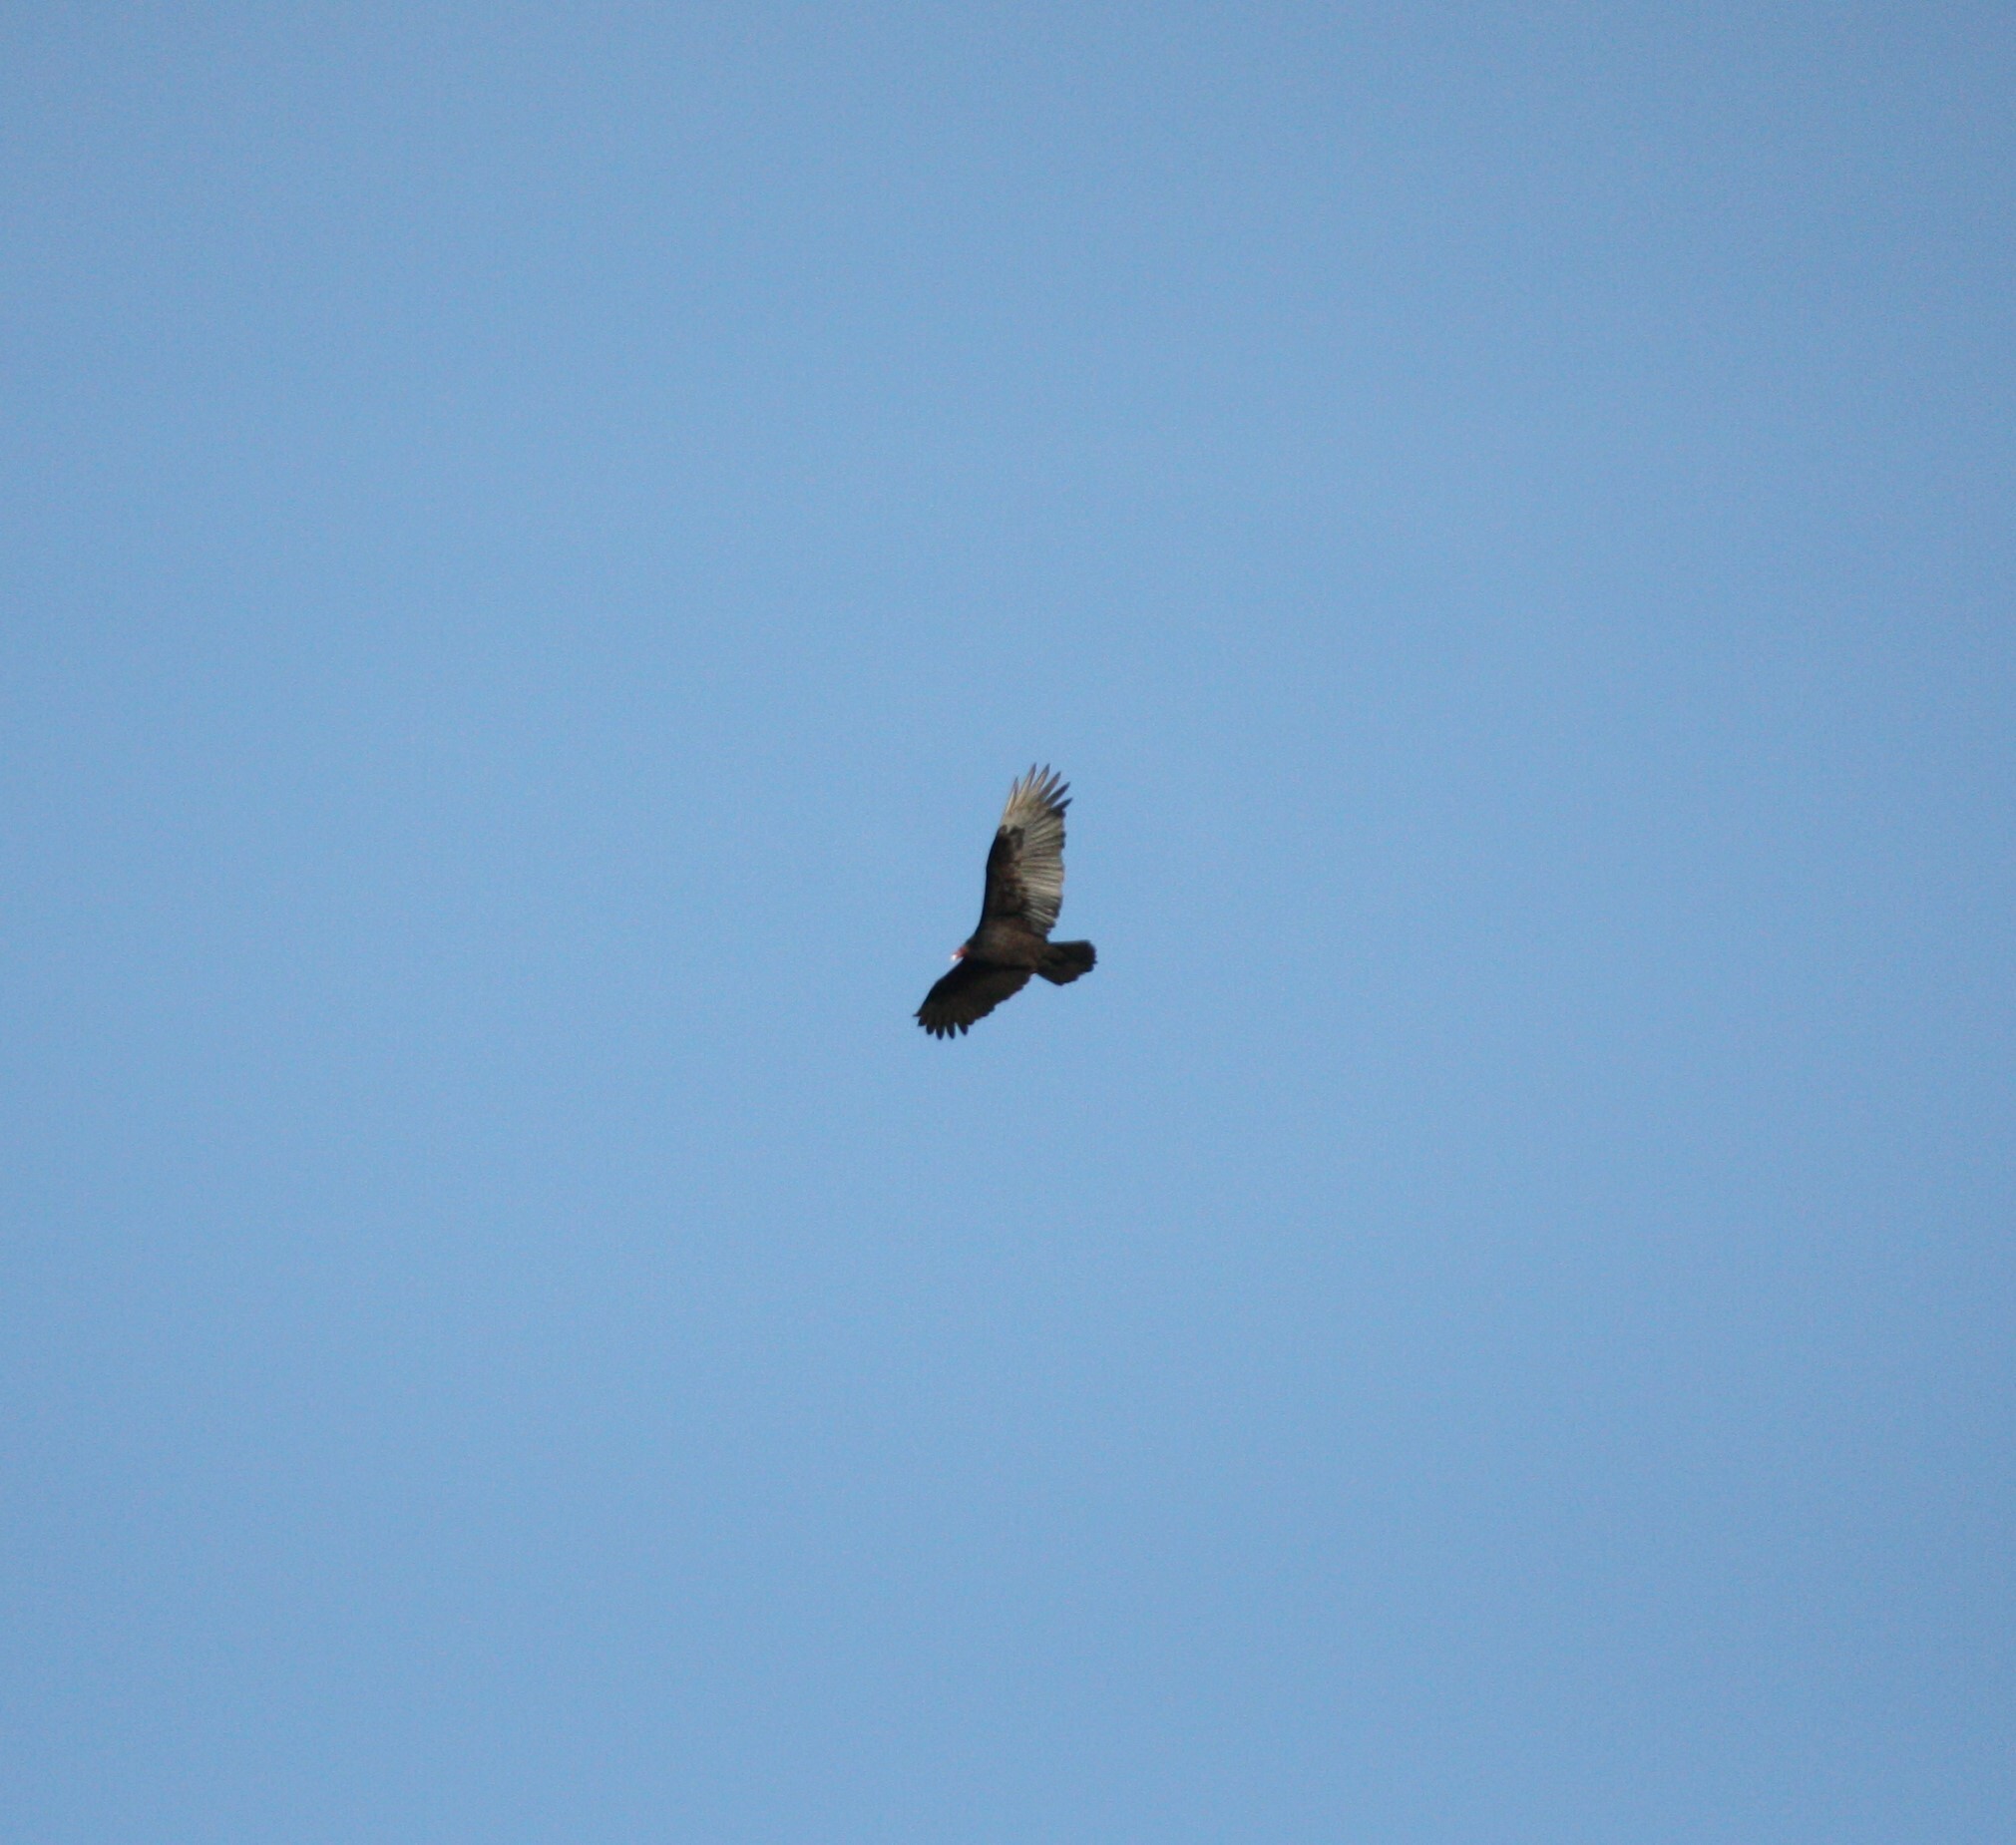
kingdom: Animalia
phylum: Chordata
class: Aves
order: Accipitriformes
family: Cathartidae
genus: Cathartes
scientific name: Cathartes aura
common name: Turkey vulture
